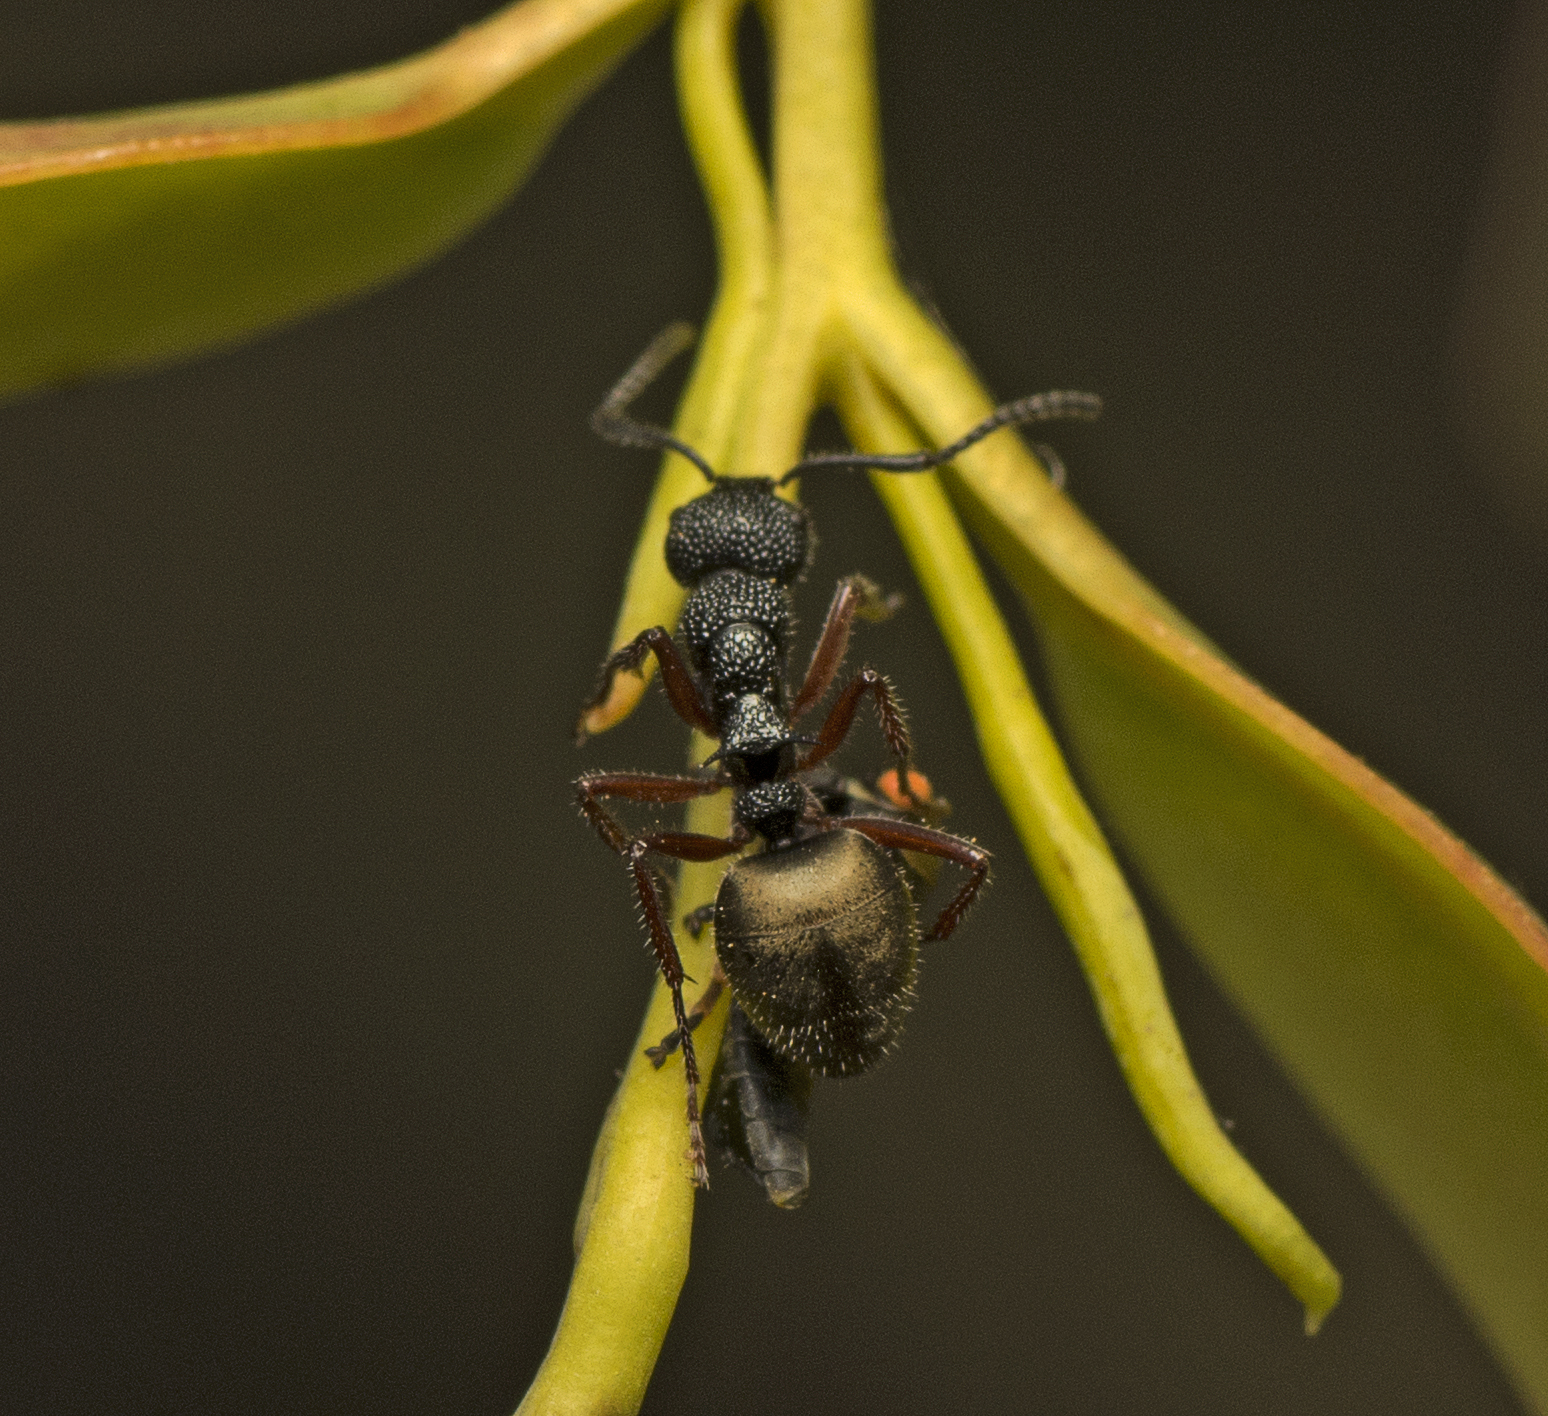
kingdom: Animalia
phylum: Arthropoda
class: Insecta
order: Hymenoptera
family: Formicidae
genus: Dolichoderus
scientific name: Dolichoderus scabridus
